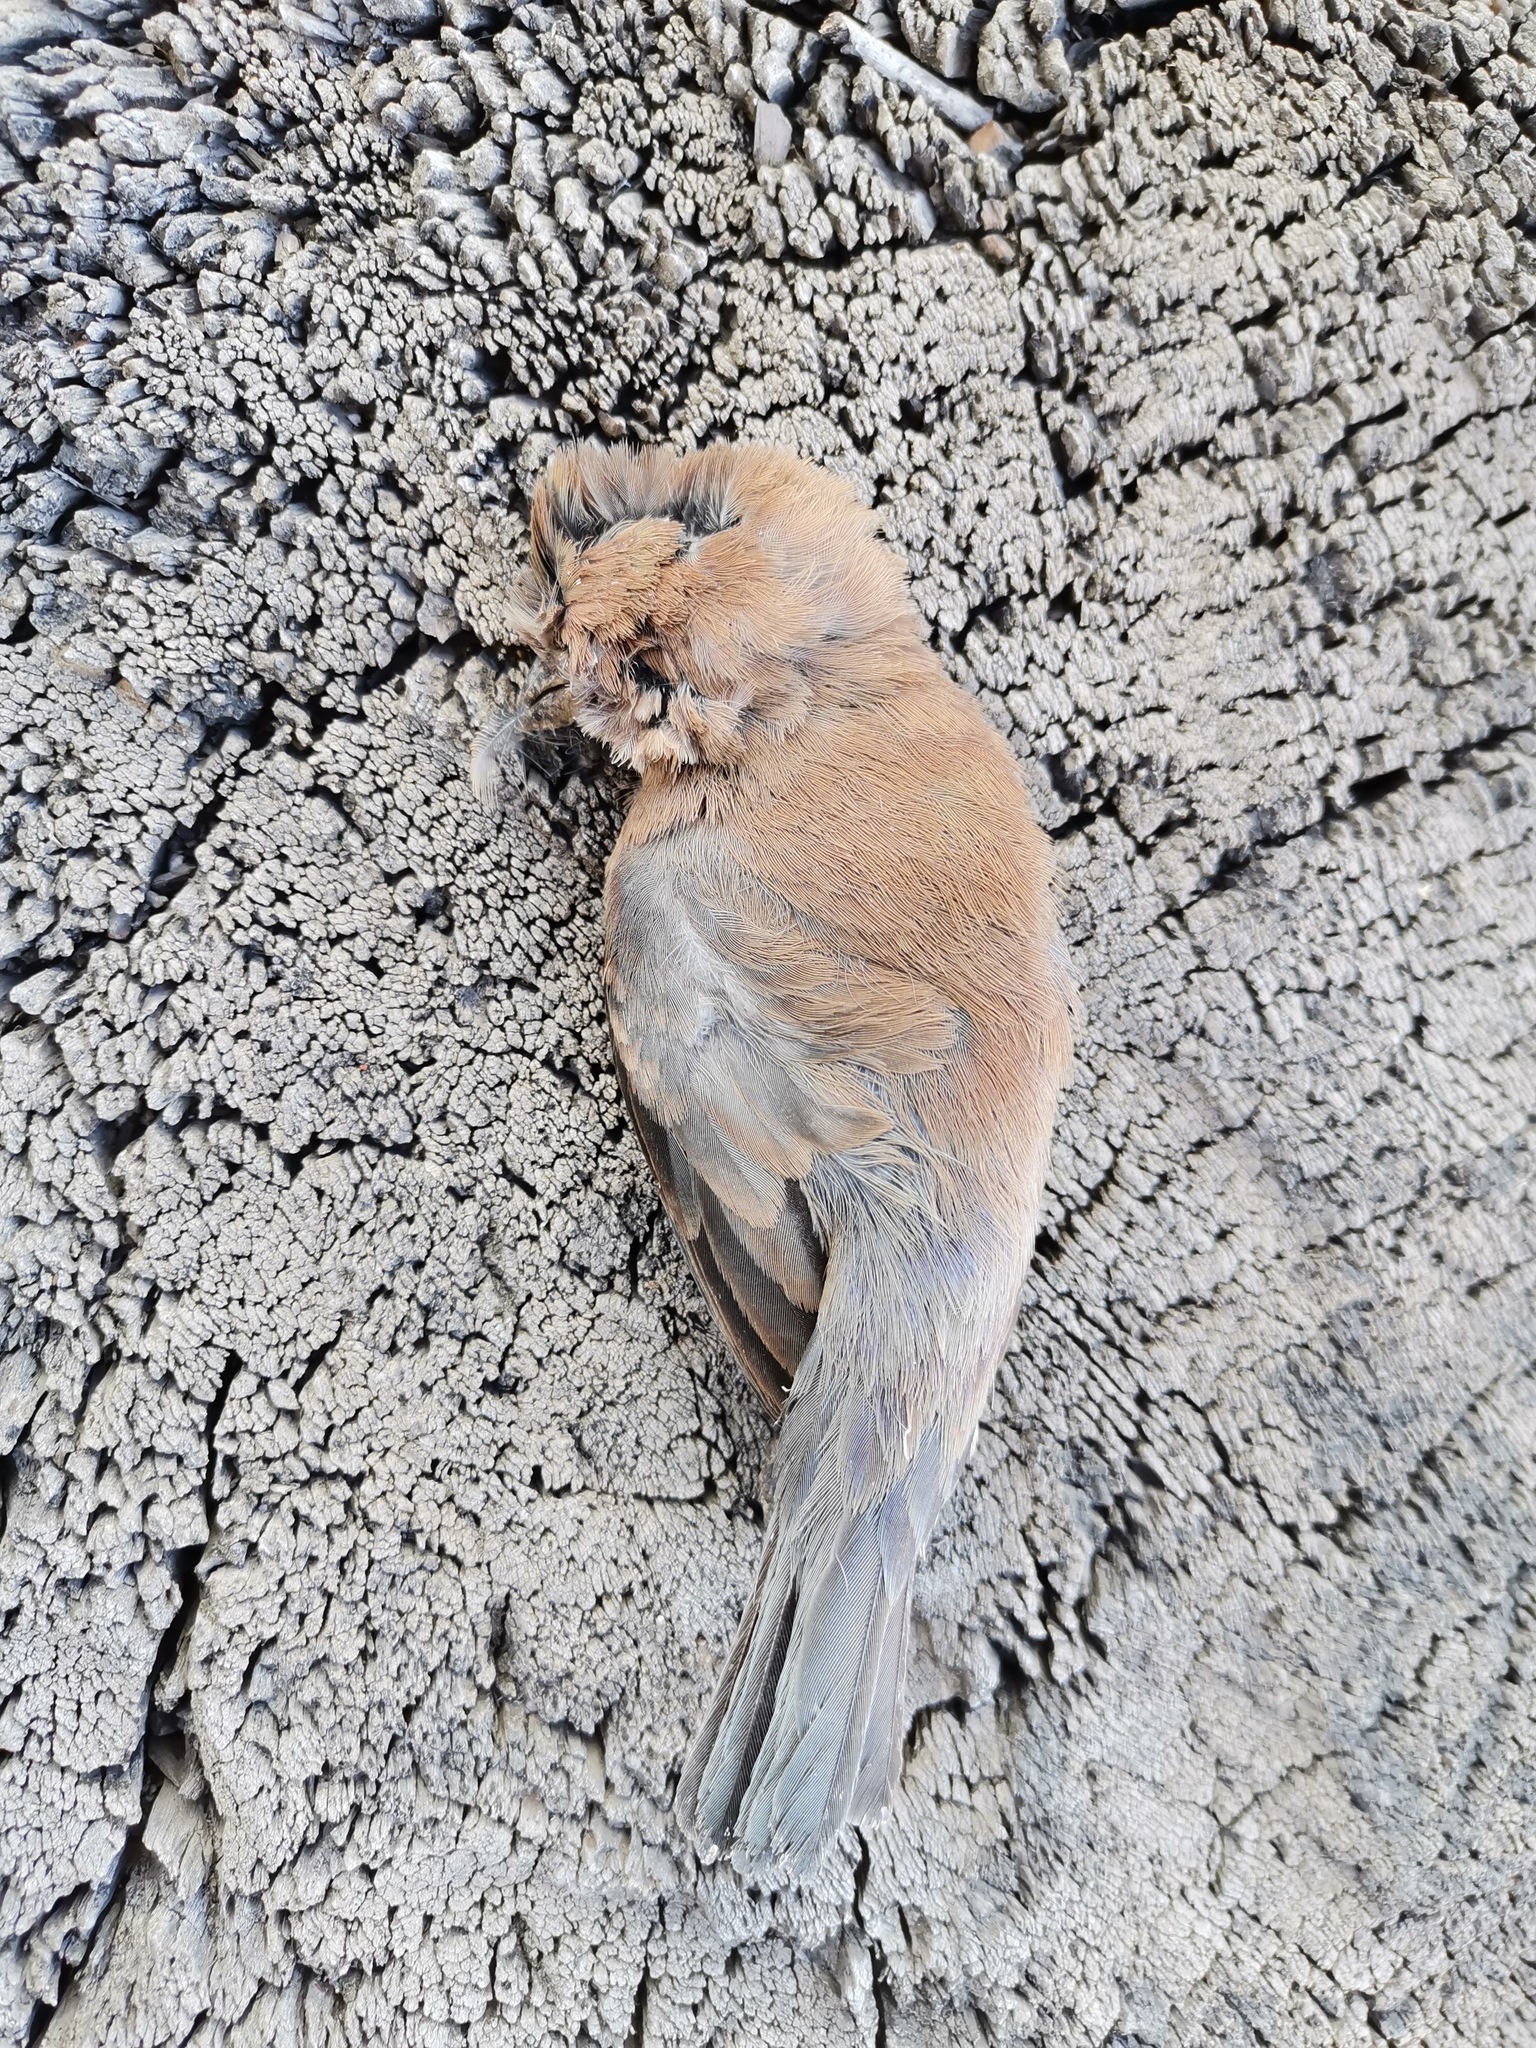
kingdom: Animalia
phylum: Chordata
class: Aves
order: Passeriformes
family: Cardinalidae
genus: Passerina
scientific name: Passerina cyanea
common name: Indigo bunting
